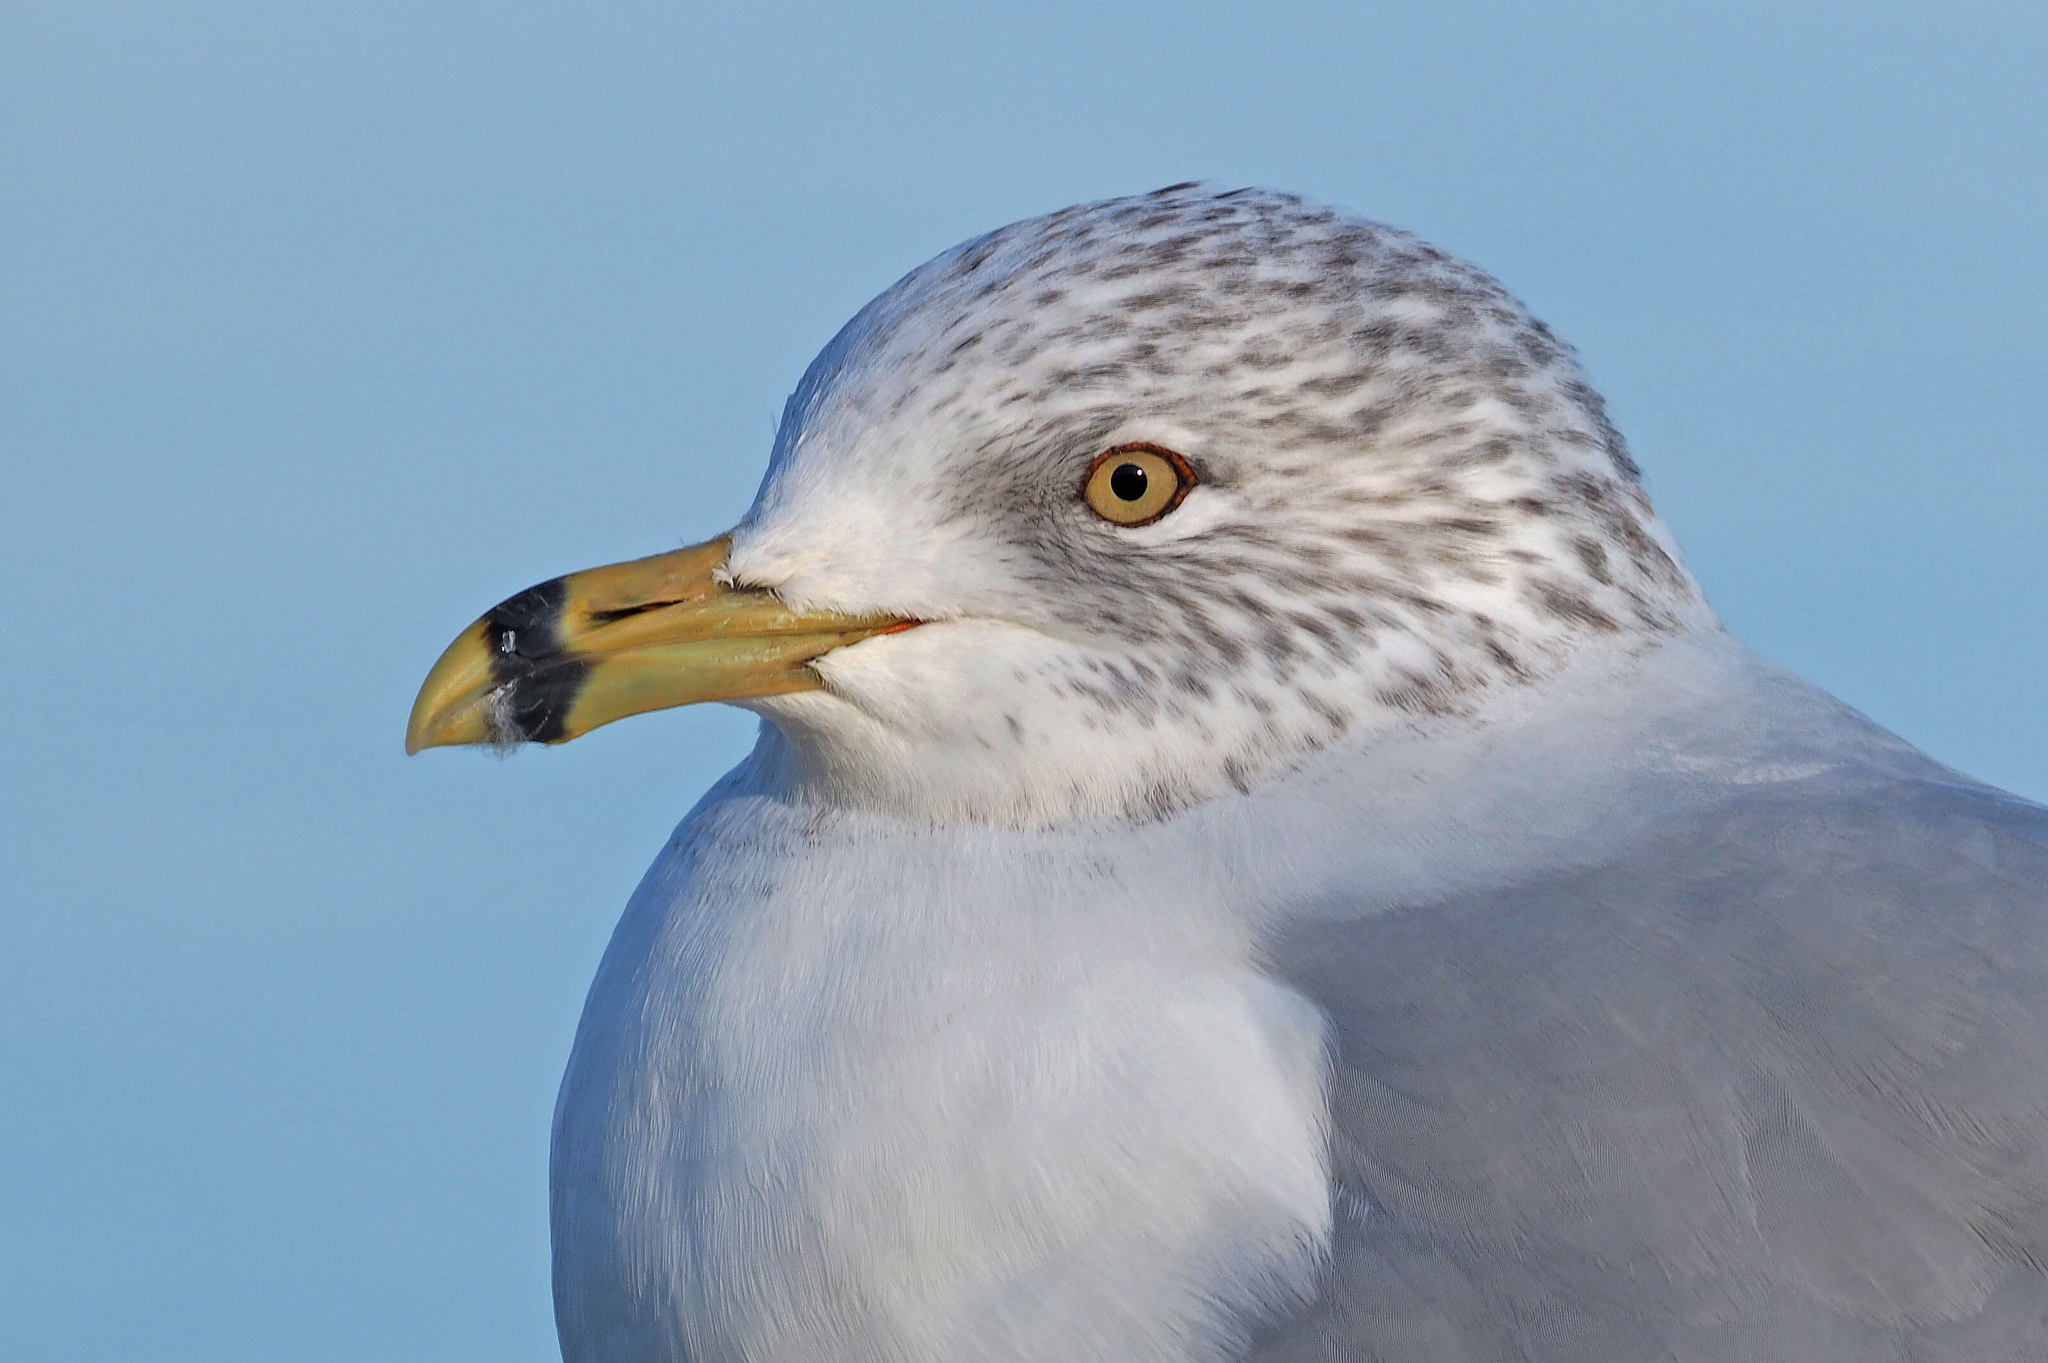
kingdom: Animalia
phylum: Chordata
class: Aves
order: Charadriiformes
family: Laridae
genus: Larus
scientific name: Larus delawarensis
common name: Ring-billed gull
